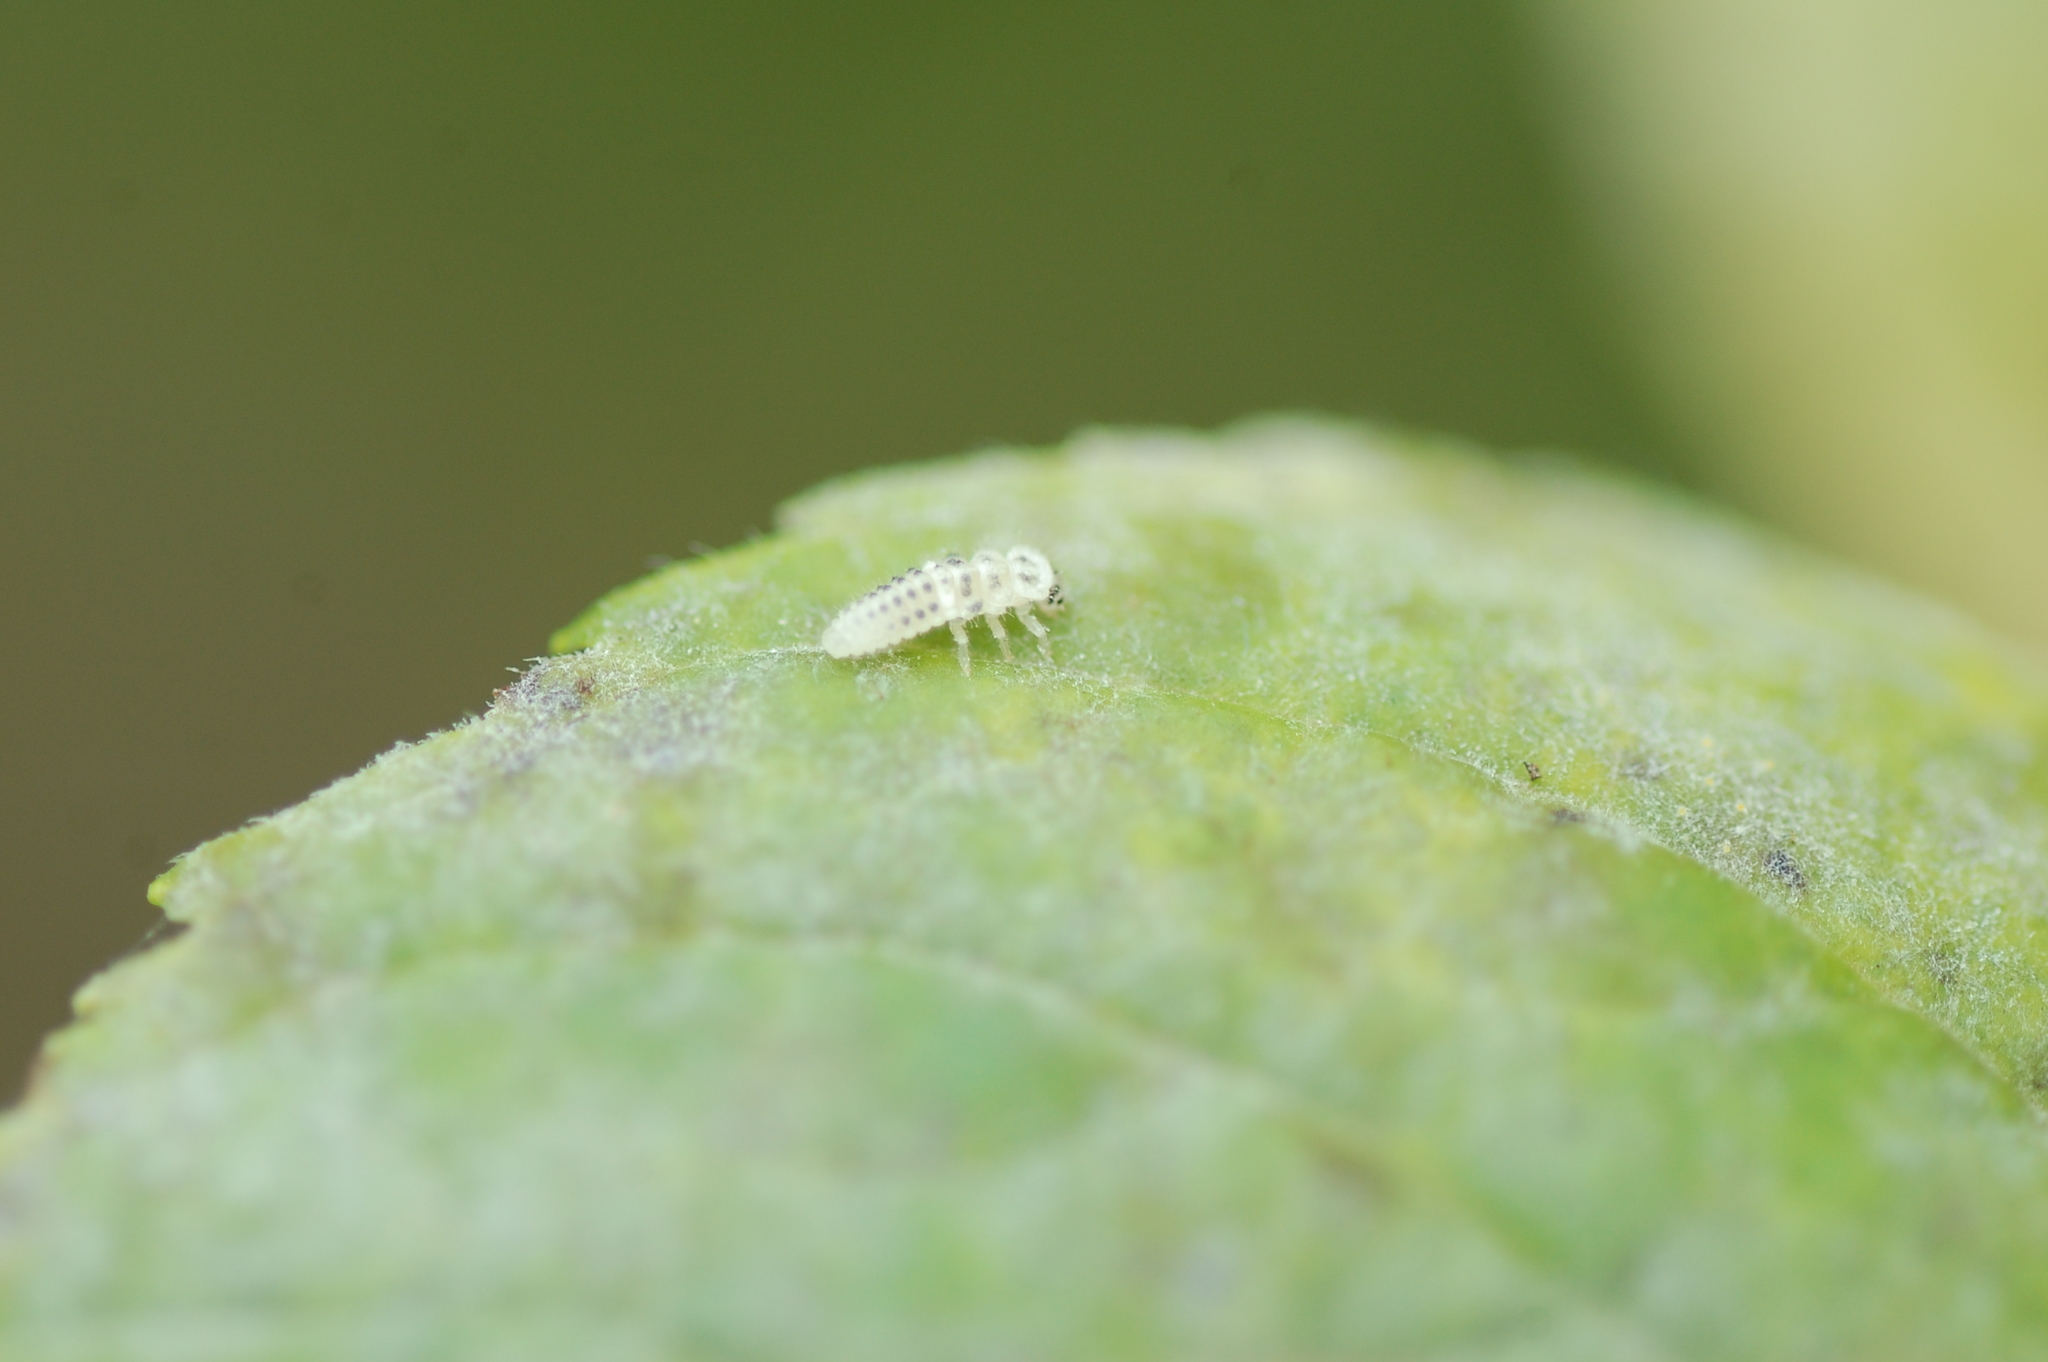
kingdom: Animalia
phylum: Arthropoda
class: Insecta
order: Coleoptera
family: Coccinellidae
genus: Psyllobora
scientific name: Psyllobora vigintimaculata
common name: Ladybird beetle
